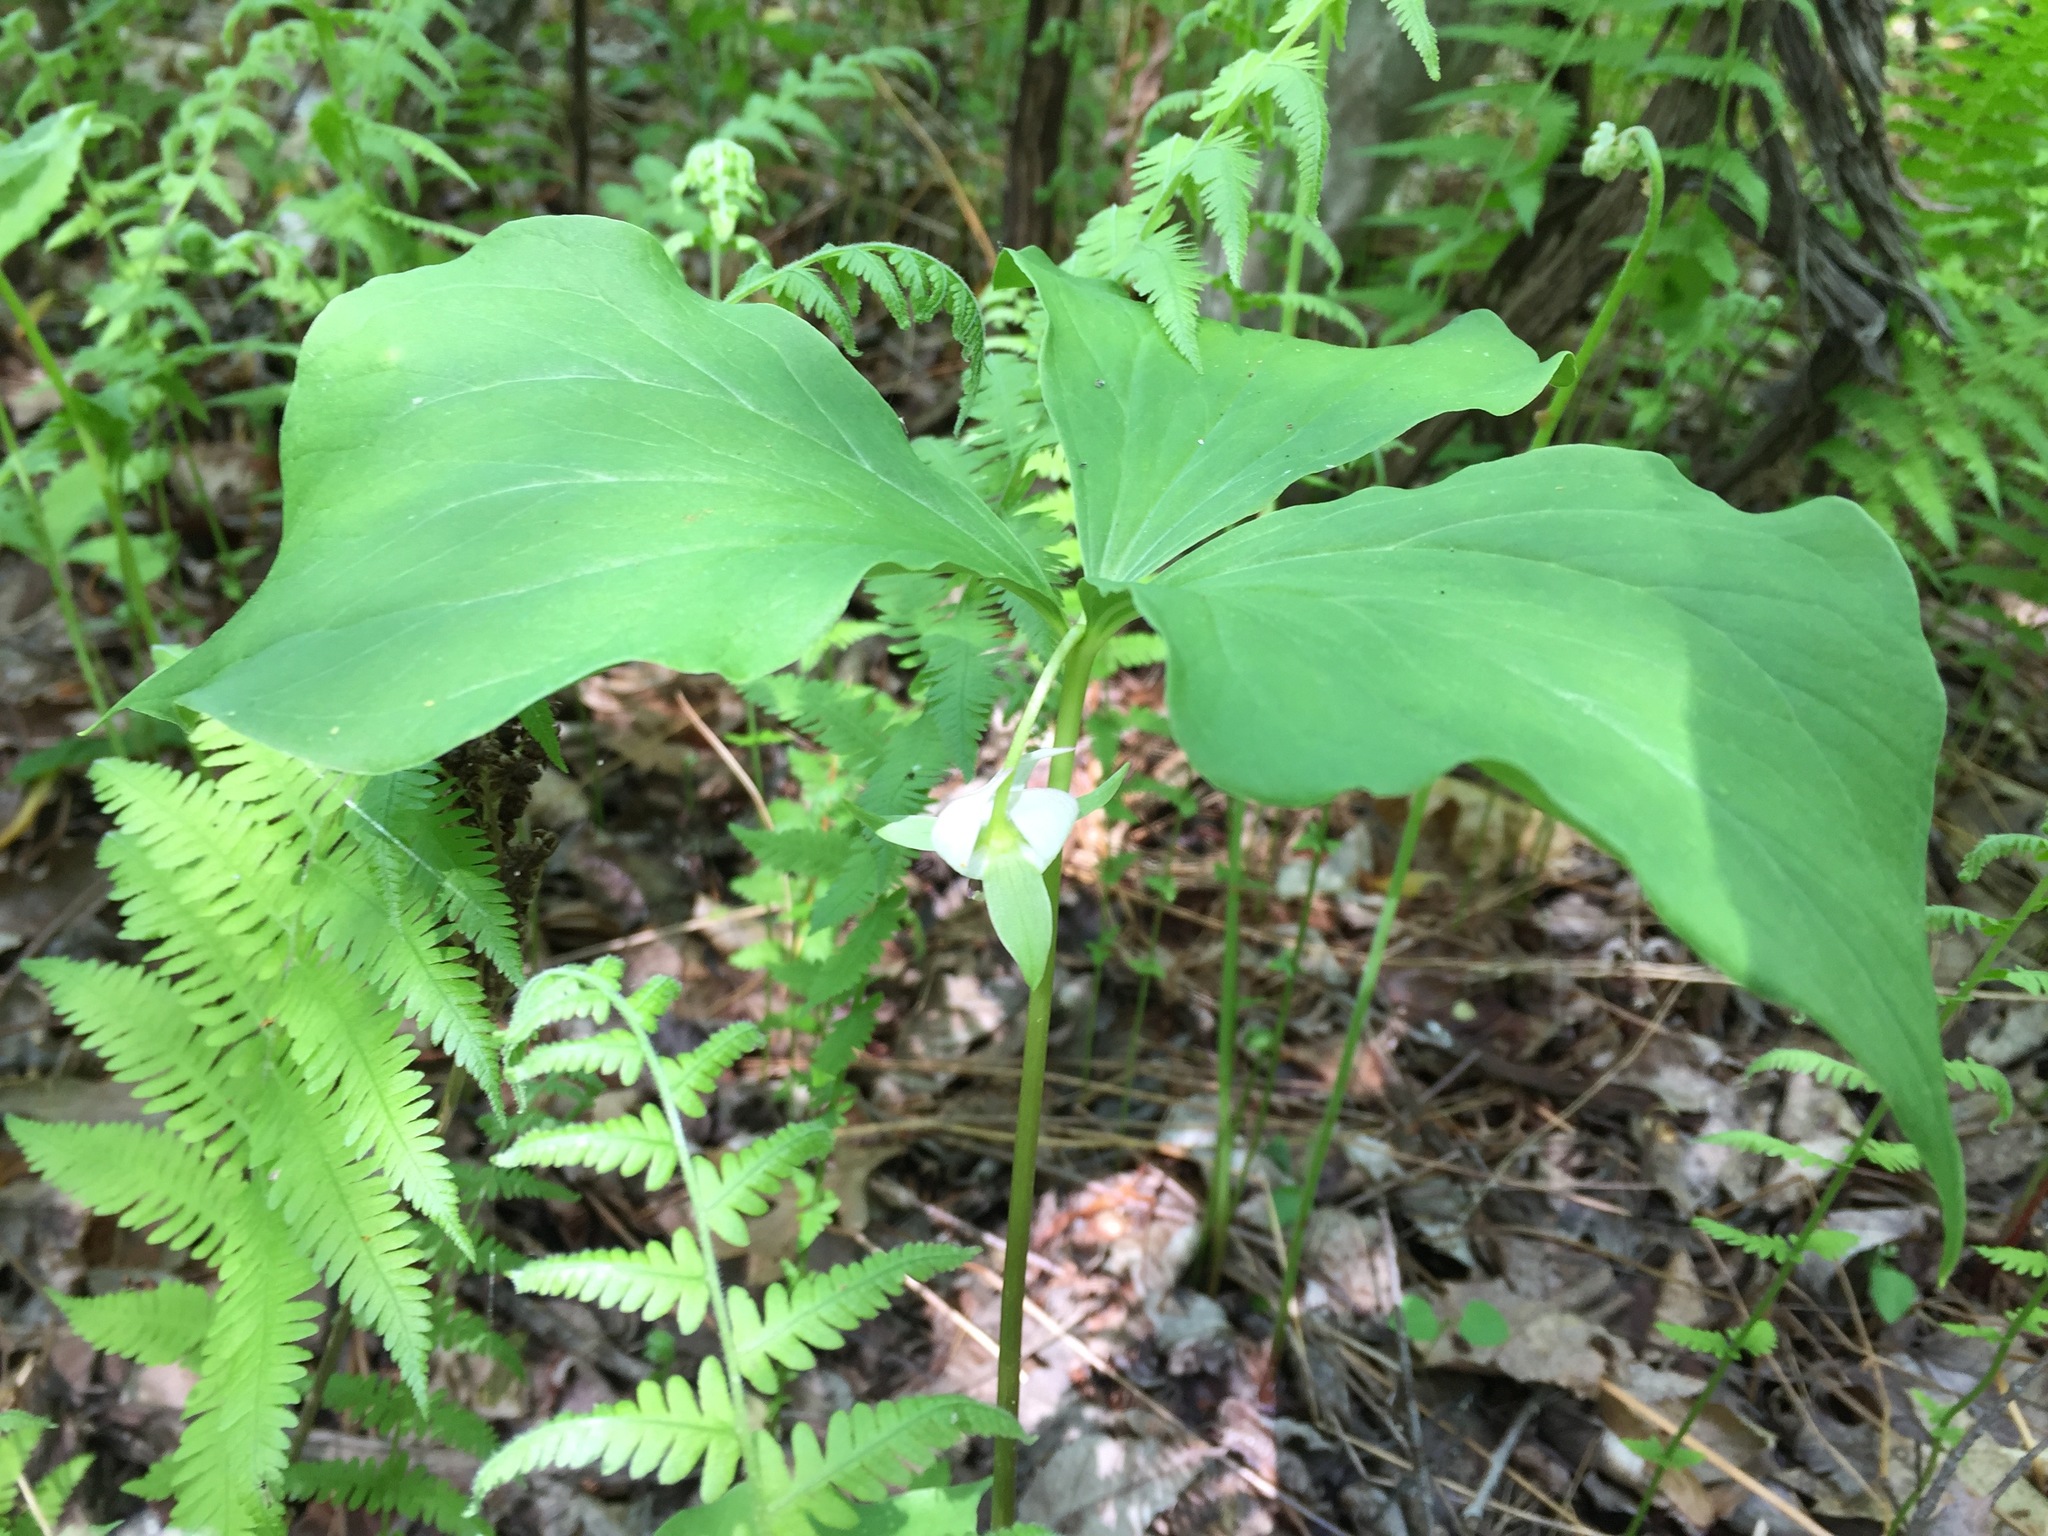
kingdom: Plantae
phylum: Tracheophyta
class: Liliopsida
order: Liliales
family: Melanthiaceae
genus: Trillium
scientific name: Trillium cernuum
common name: Nodding trillium
